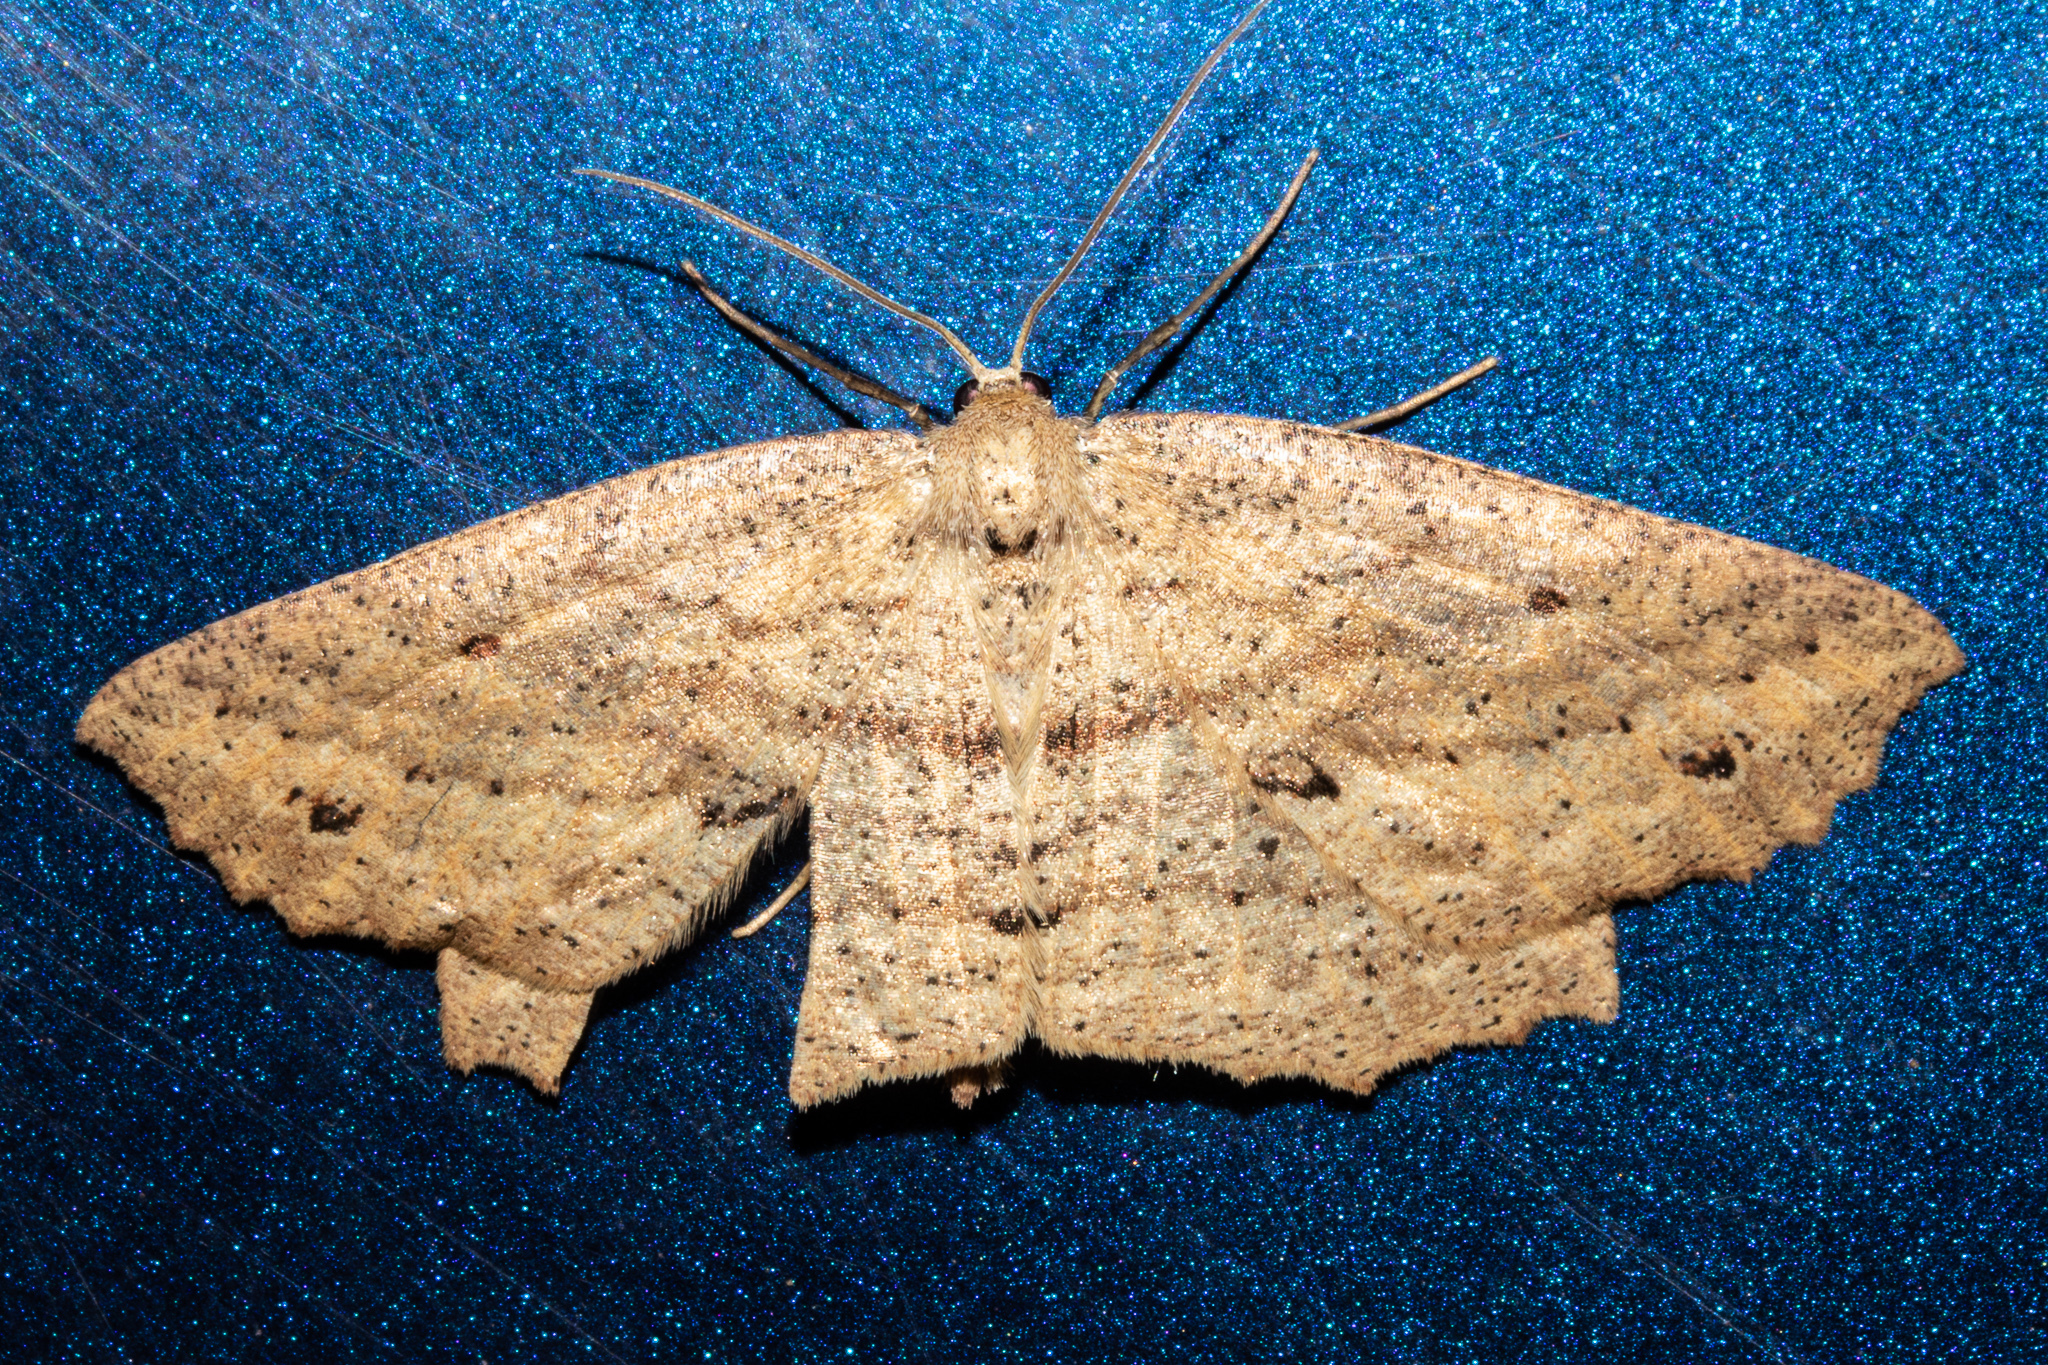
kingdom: Animalia
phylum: Arthropoda
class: Insecta
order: Lepidoptera
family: Geometridae
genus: Xyridacma
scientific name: Xyridacma veronicae
